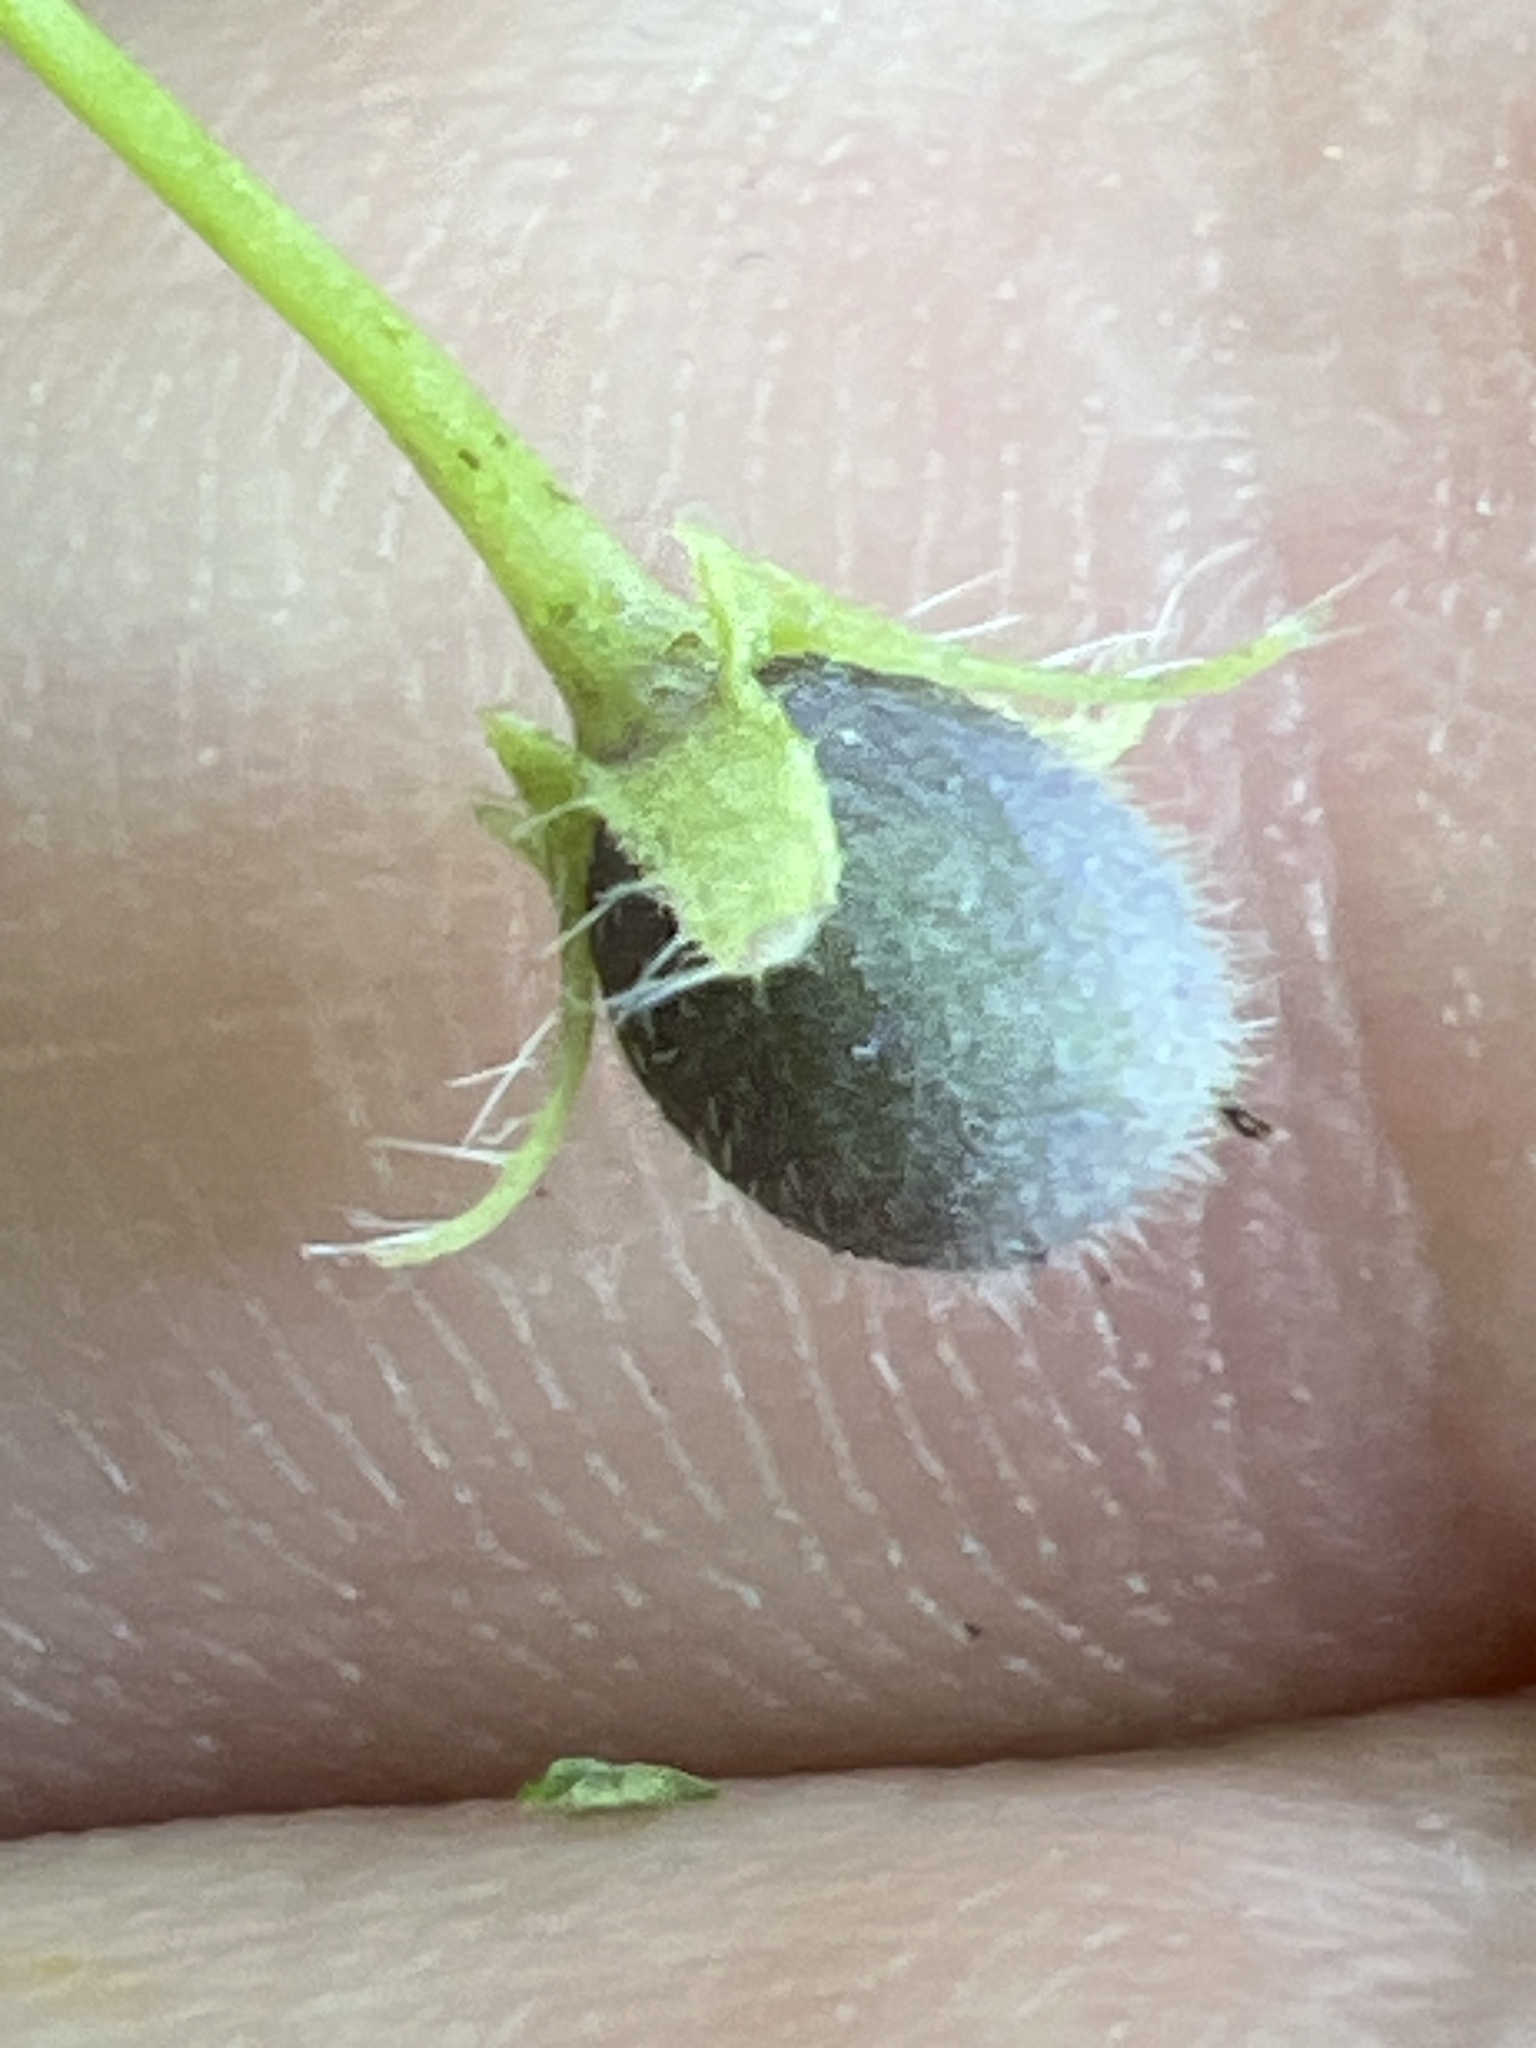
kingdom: Plantae
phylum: Tracheophyta
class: Magnoliopsida
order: Boraginales
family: Hydrophyllaceae
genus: Nemophila
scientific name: Nemophila aphylla
